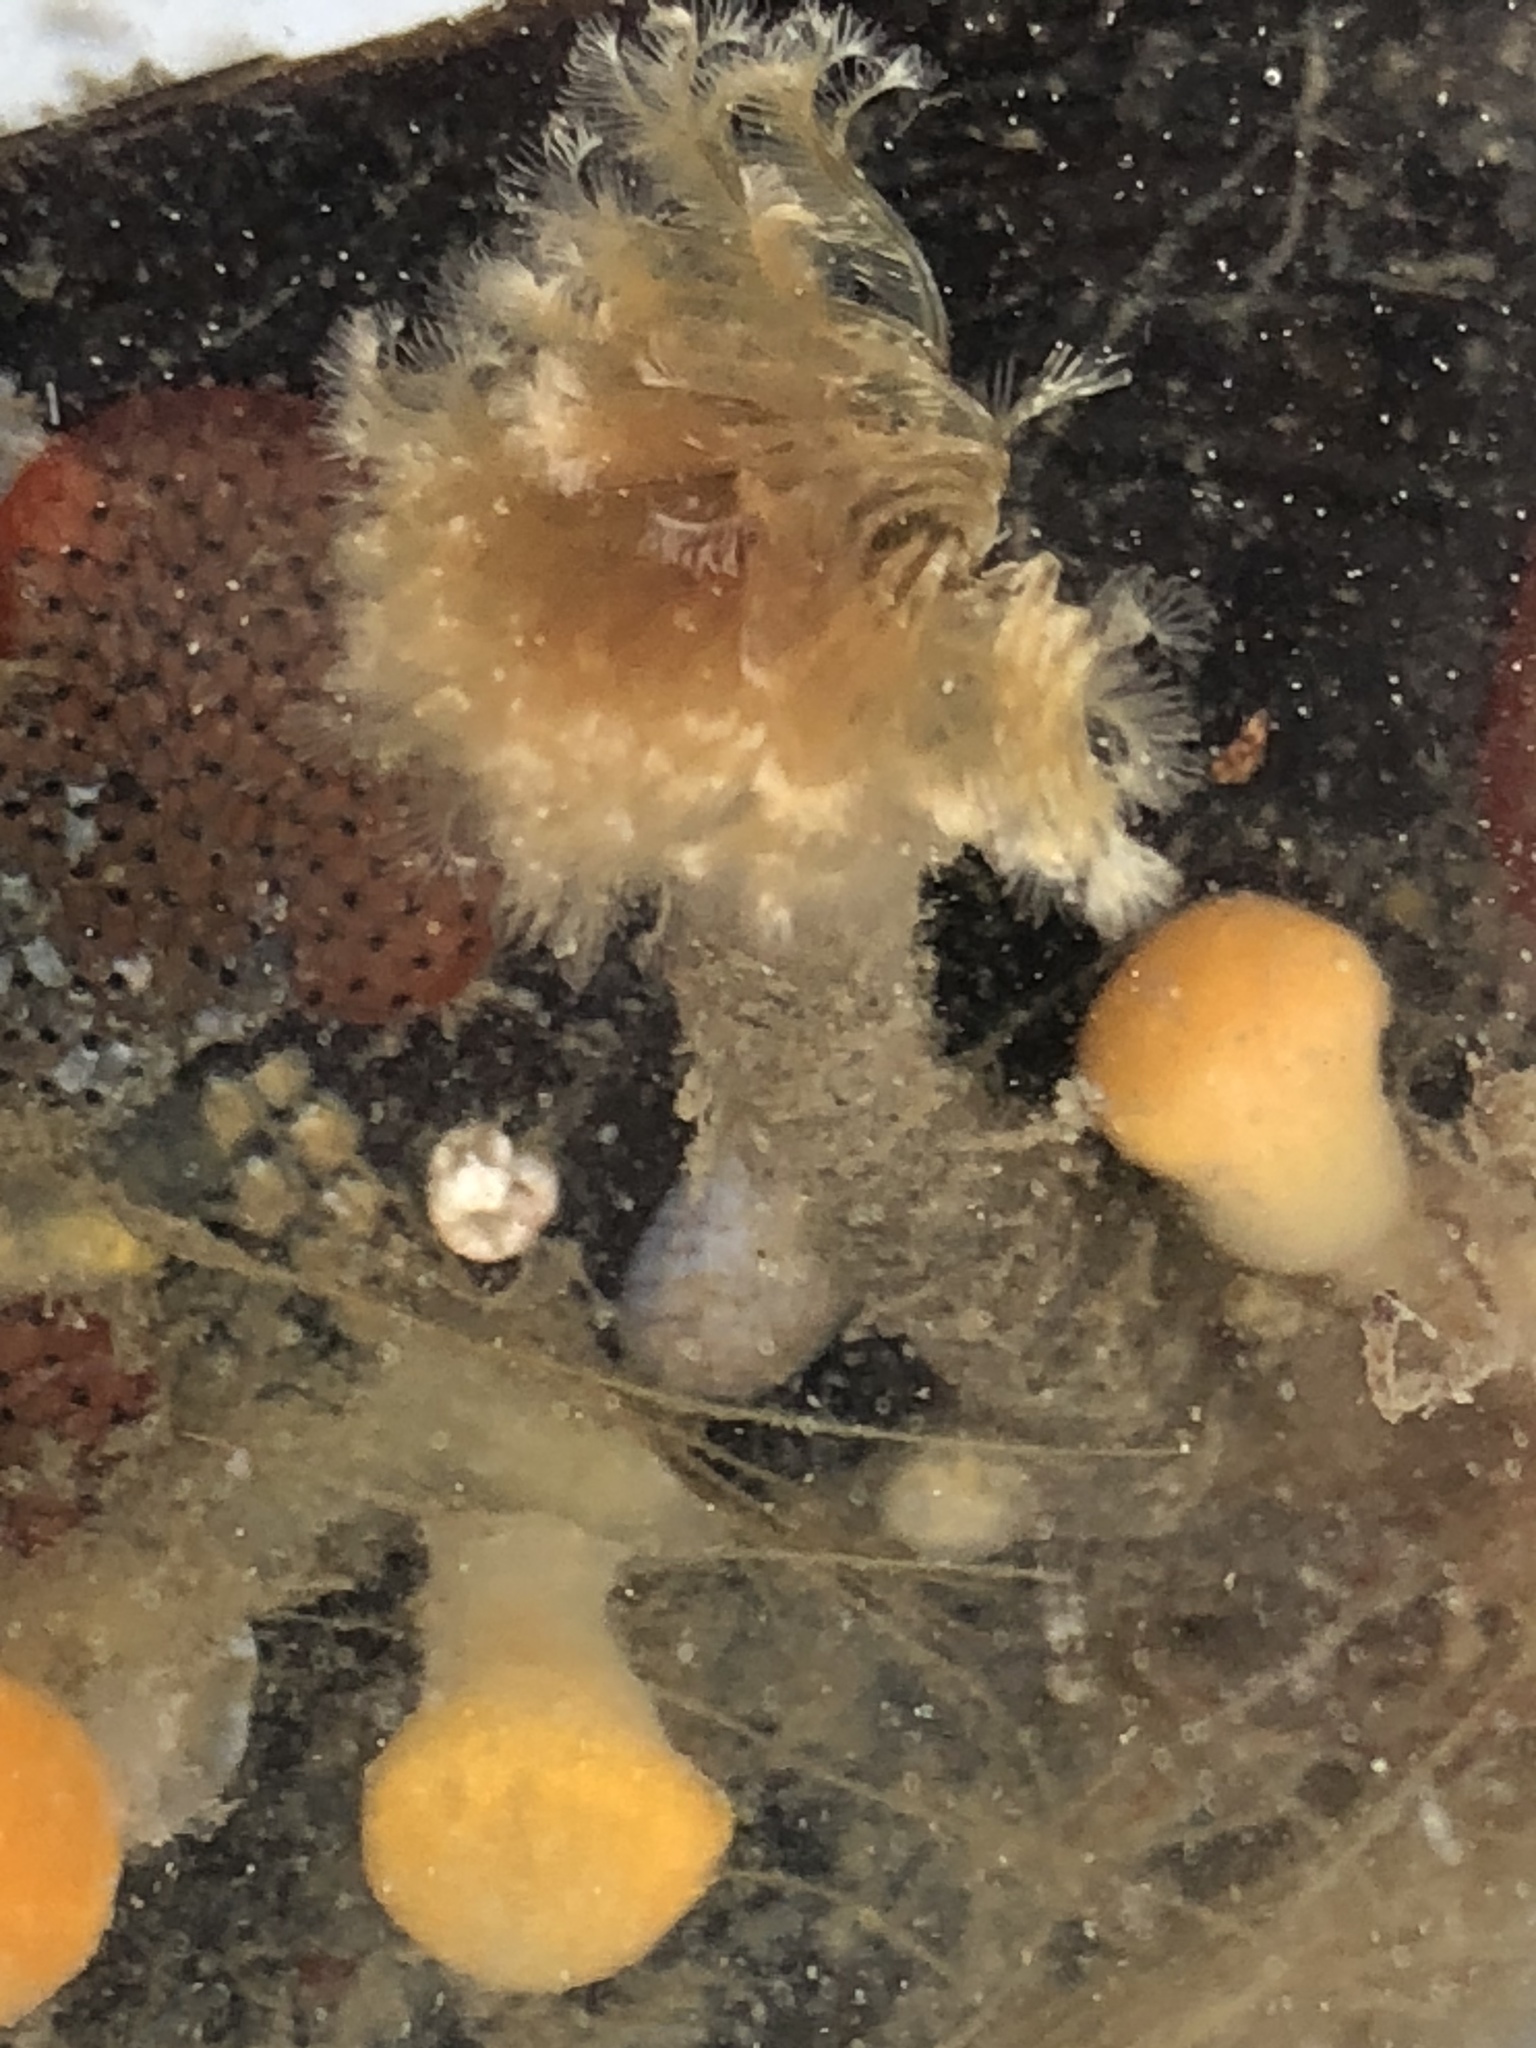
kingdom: Animalia
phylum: Annelida
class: Polychaeta
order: Sabellida
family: Sabellidae
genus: Schizobranchia
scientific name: Schizobranchia insignis
